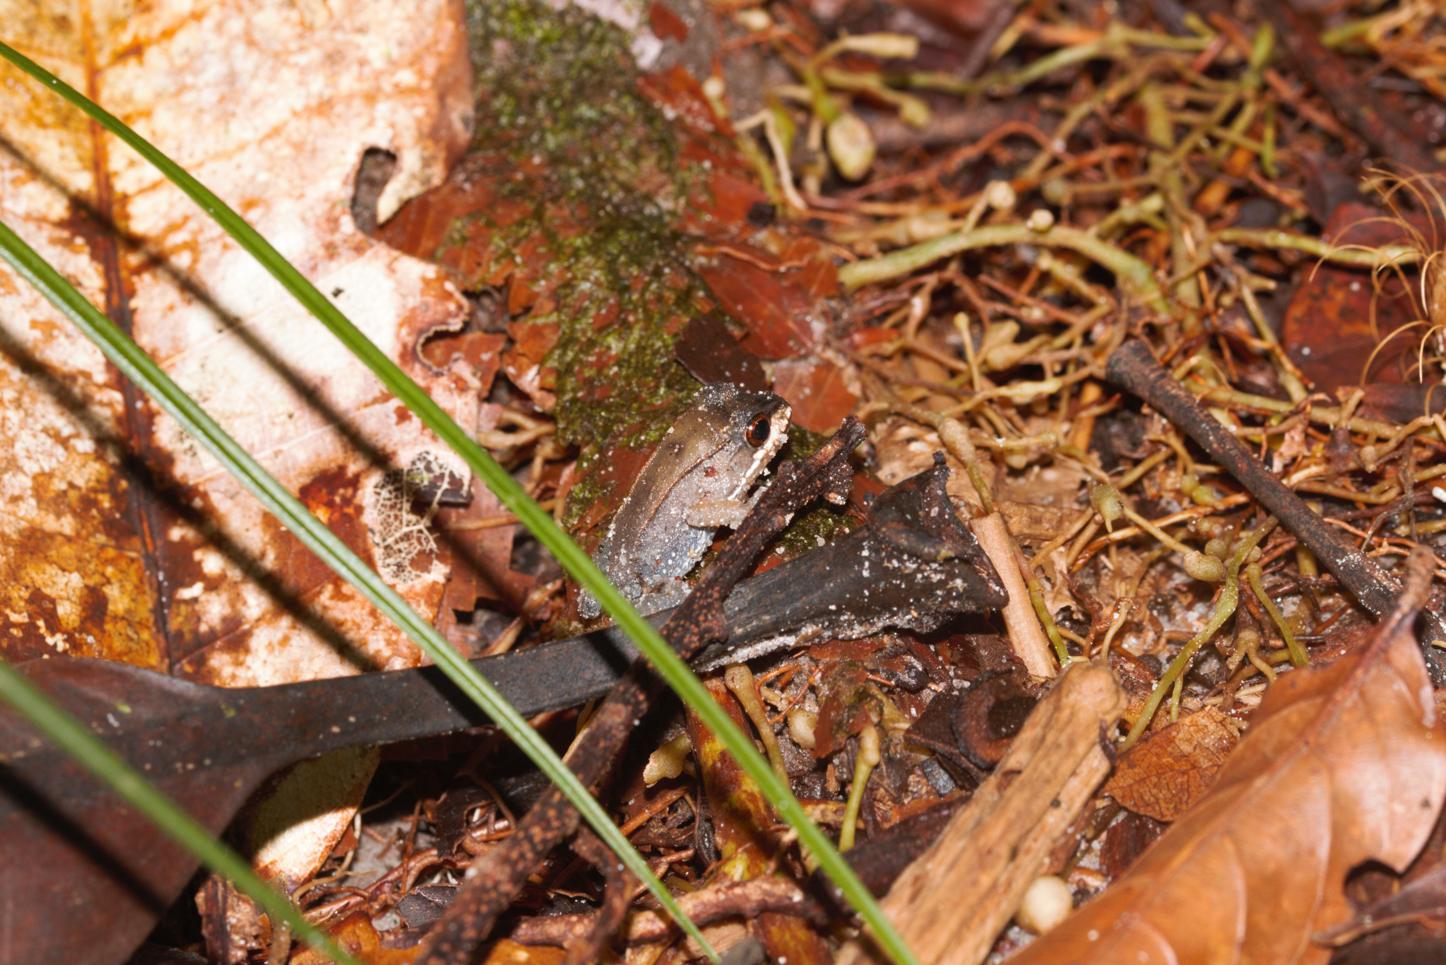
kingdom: Animalia
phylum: Chordata
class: Amphibia
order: Anura
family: Leptodactylidae
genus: Leptodactylus
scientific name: Leptodactylus rhodomystax
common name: Loreto white-lipped frog
